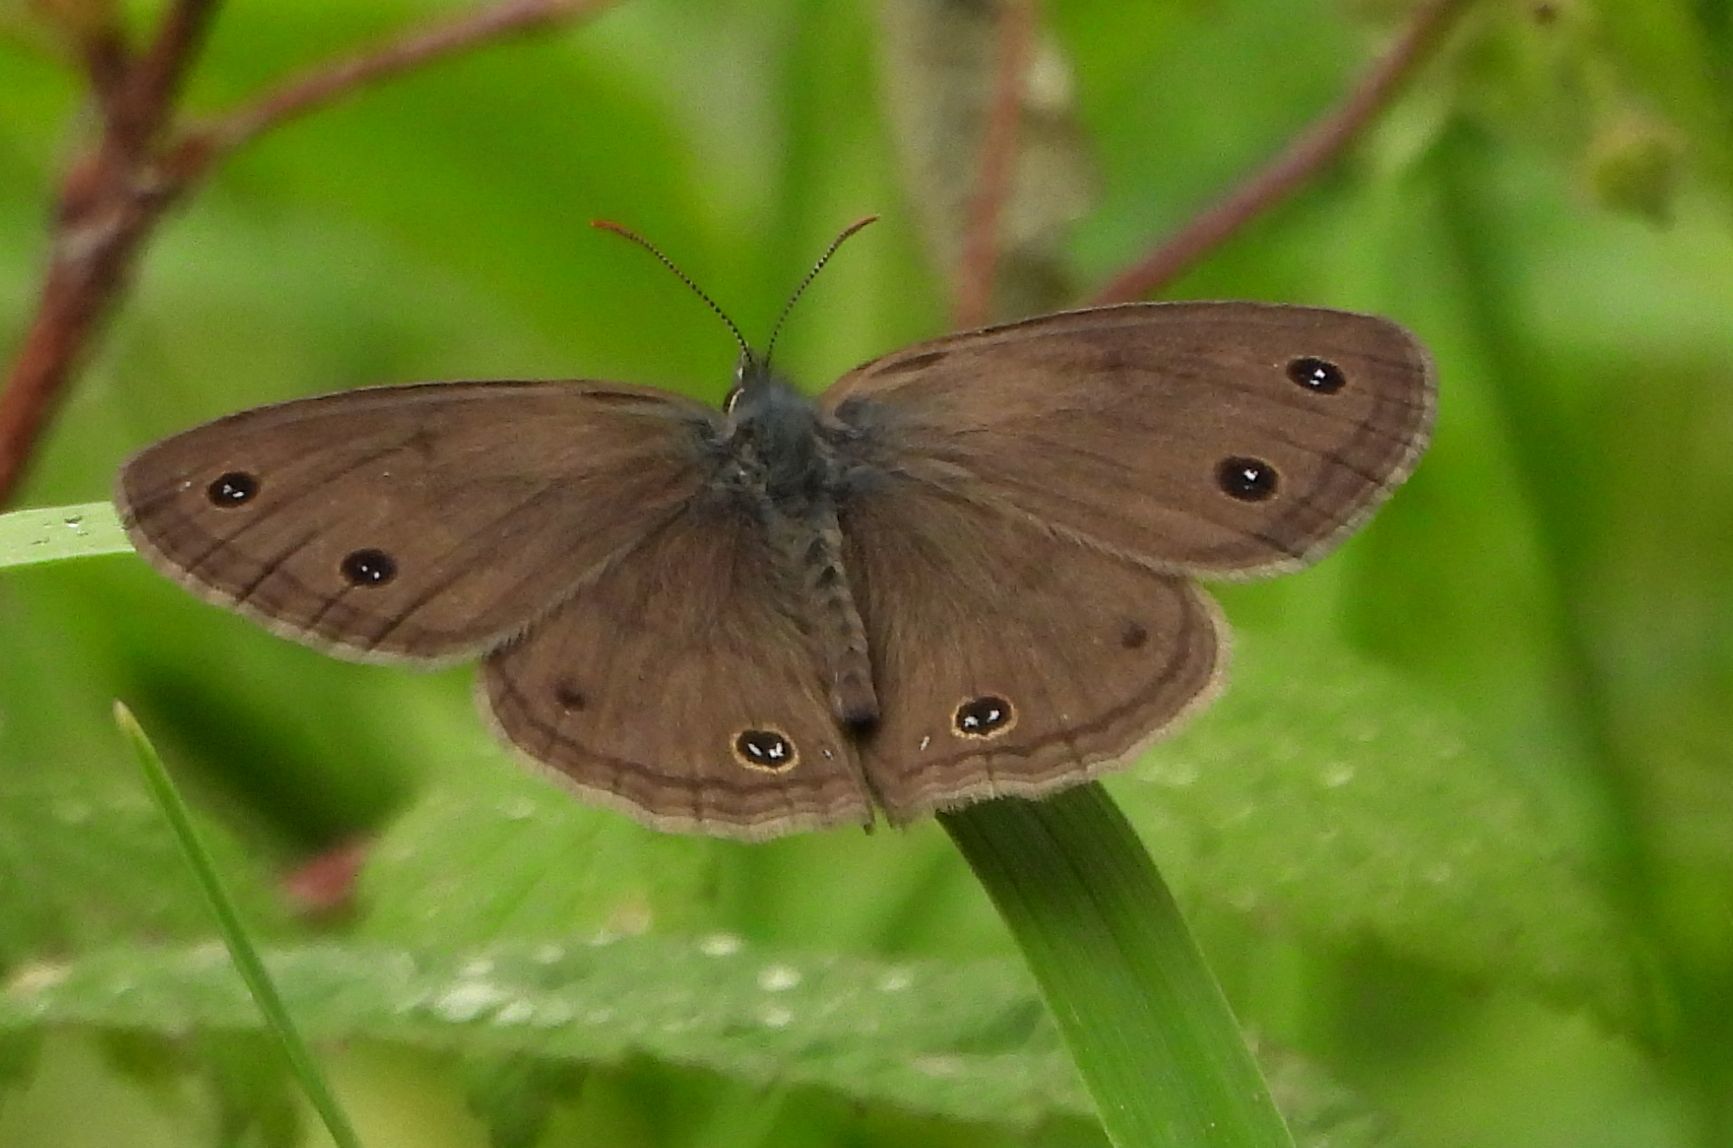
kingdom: Animalia
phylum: Arthropoda
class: Insecta
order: Lepidoptera
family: Nymphalidae
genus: Euptychia
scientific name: Euptychia cymela
